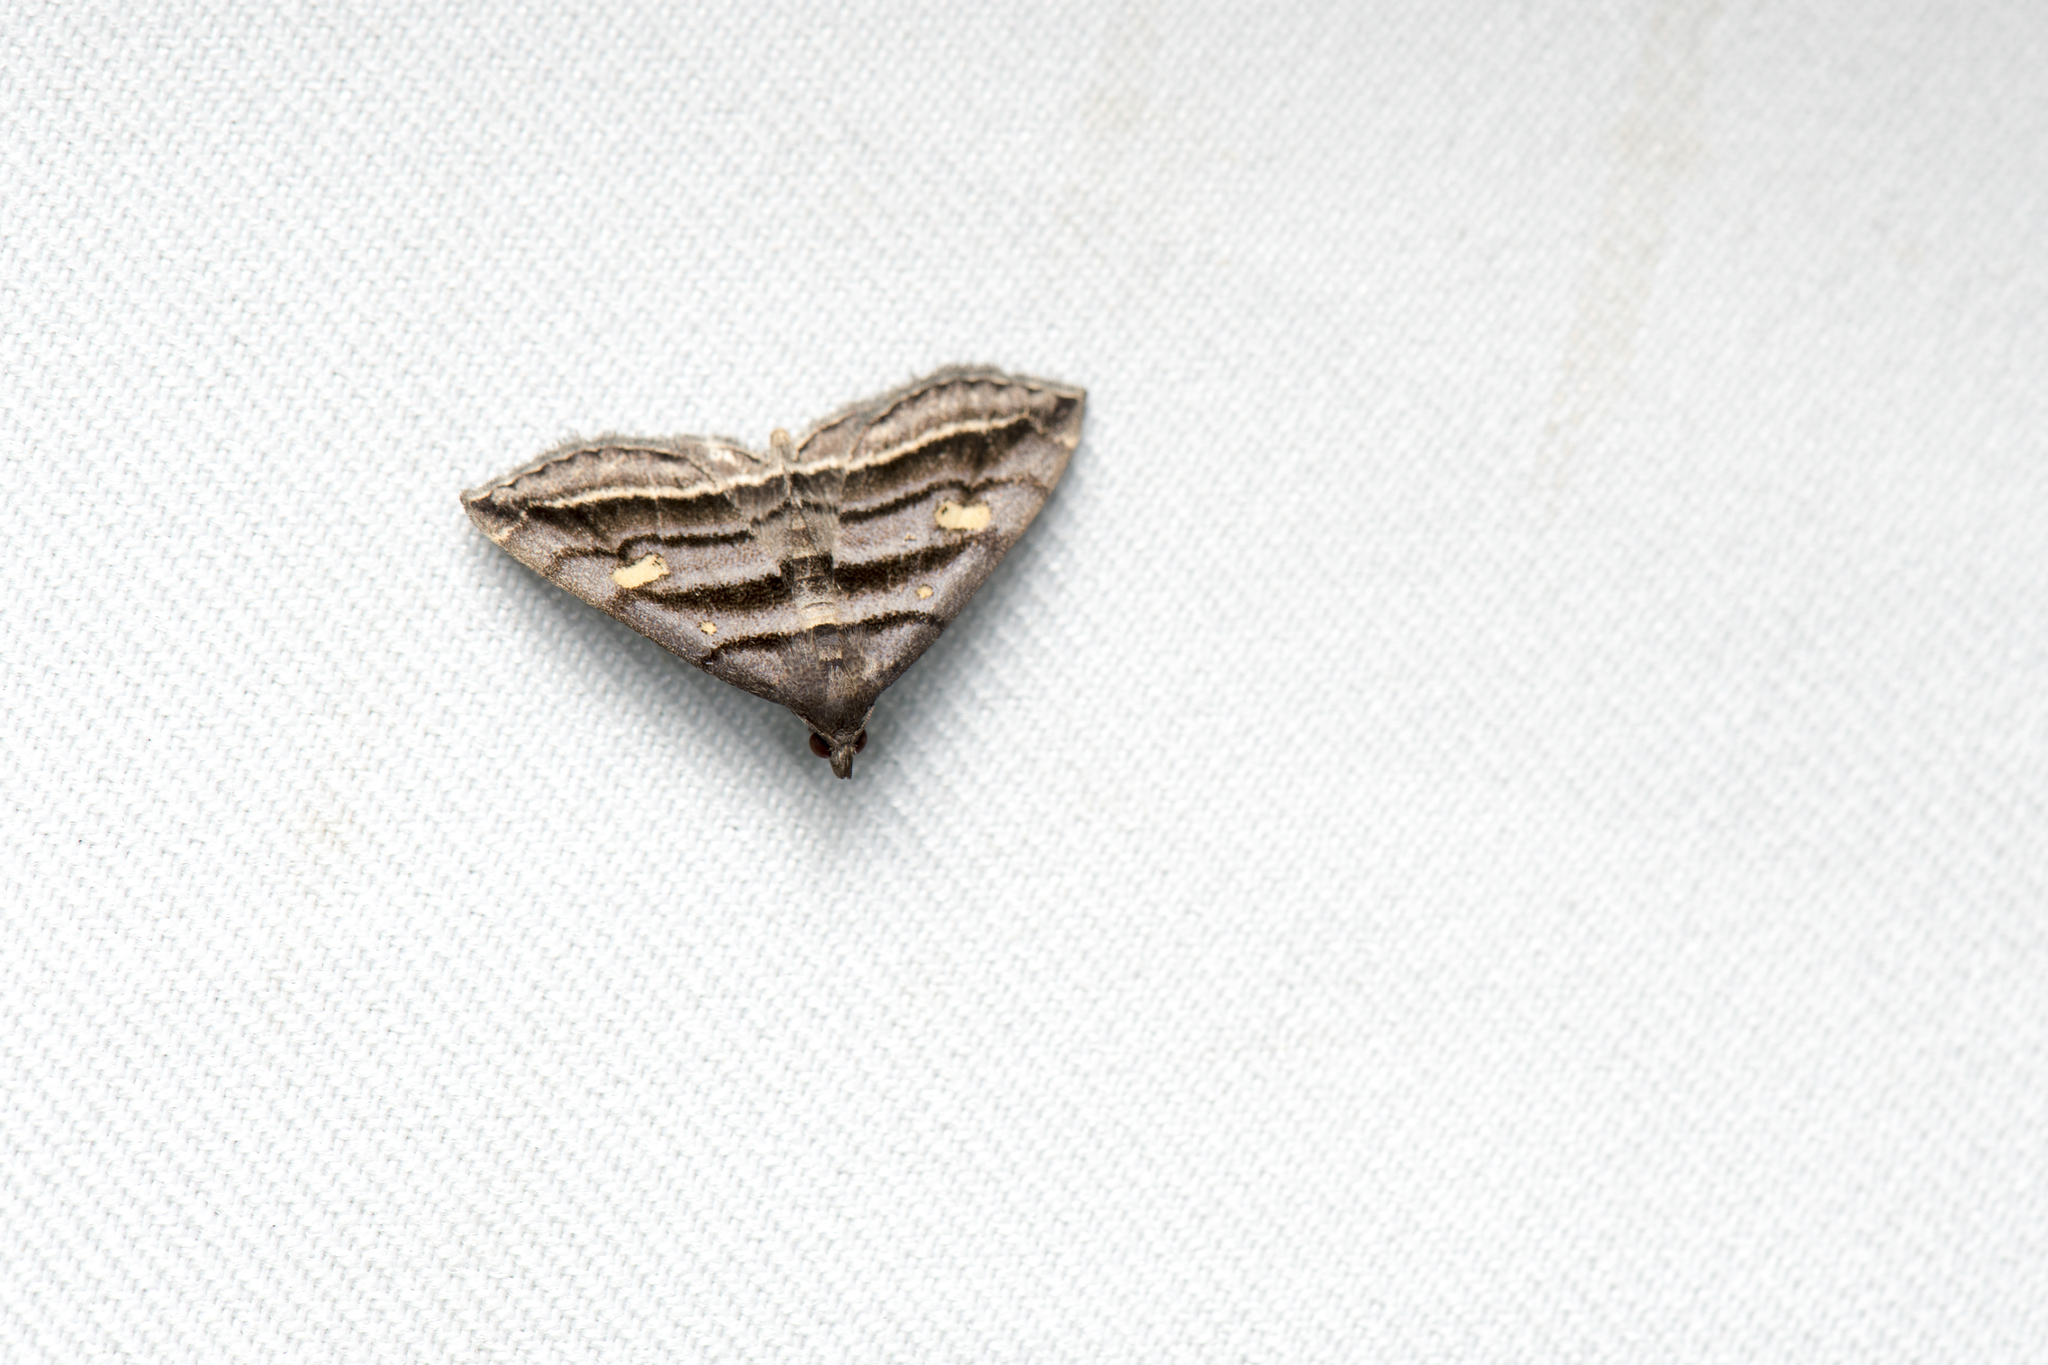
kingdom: Animalia
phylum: Arthropoda
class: Insecta
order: Lepidoptera
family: Erebidae
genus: Paracolax
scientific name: Paracolax pryeri
